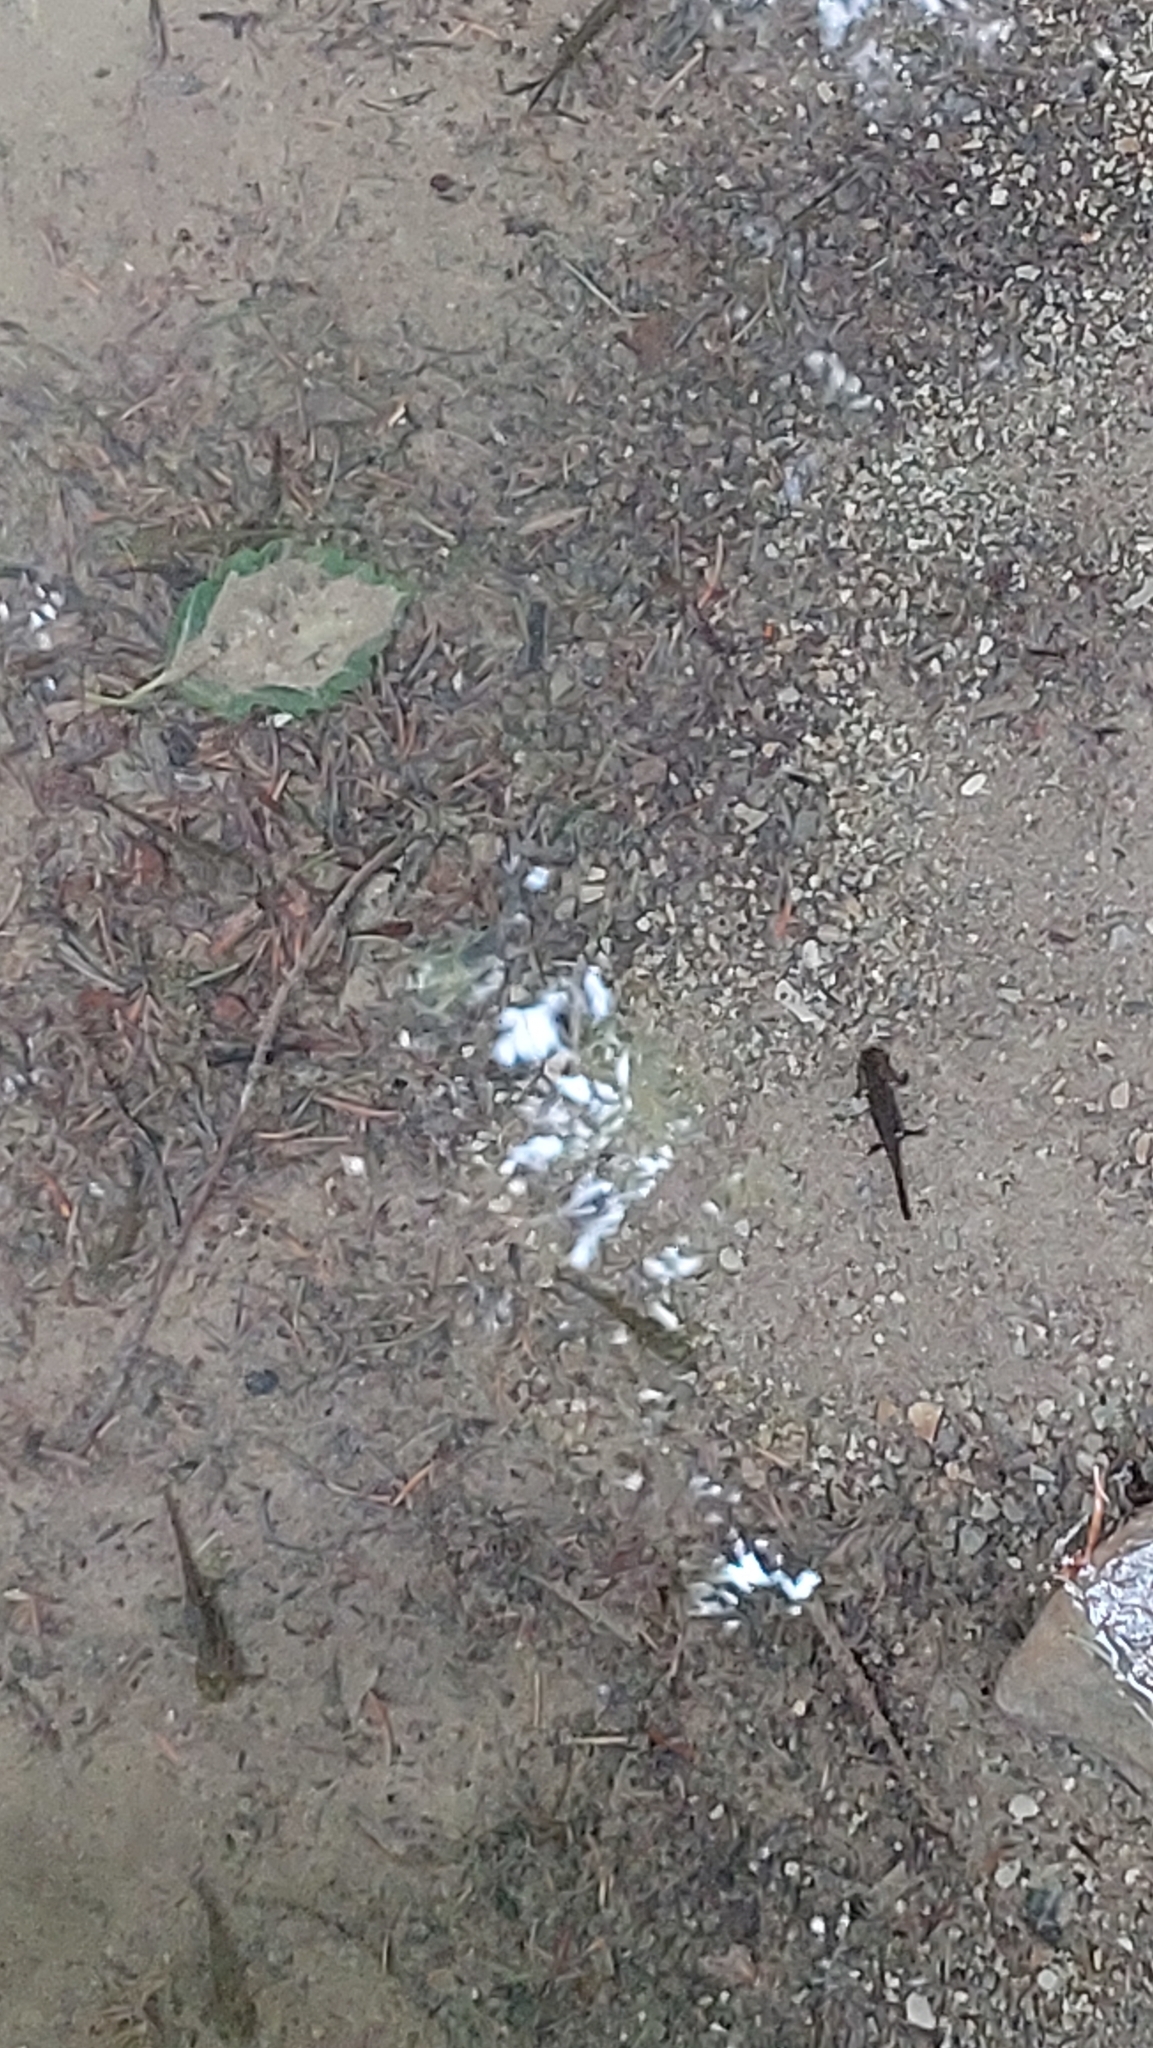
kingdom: Animalia
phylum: Chordata
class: Amphibia
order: Caudata
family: Salamandridae
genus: Salamandra
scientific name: Salamandra salamandra
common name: Fire salamander
